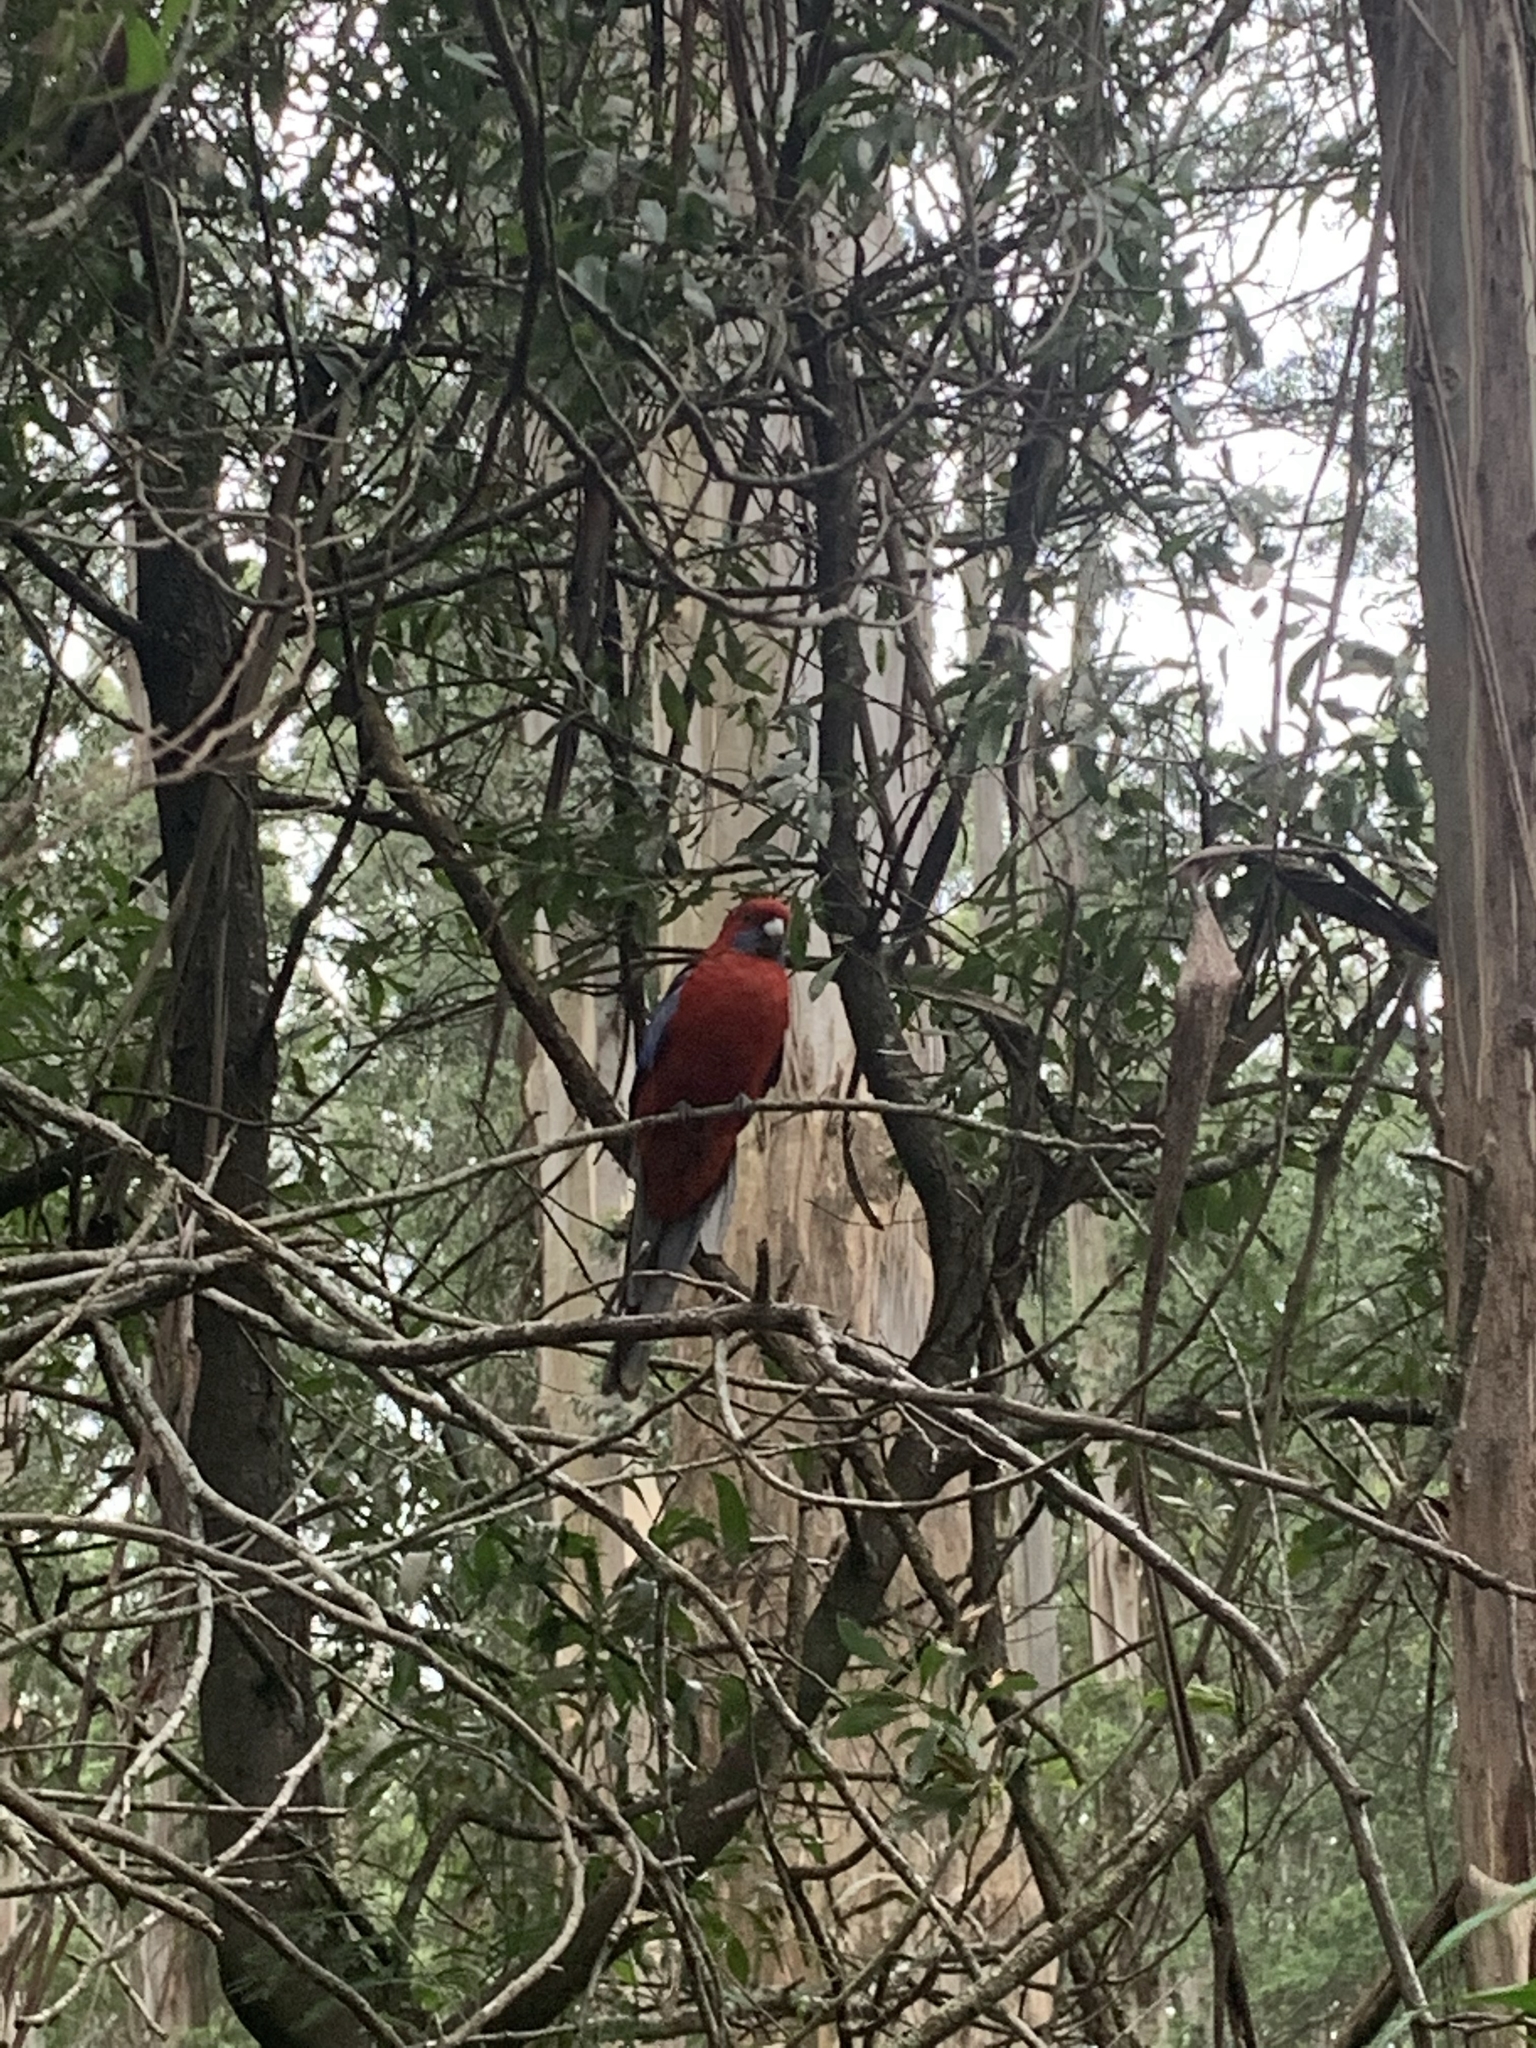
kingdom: Animalia
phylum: Chordata
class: Aves
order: Psittaciformes
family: Psittacidae
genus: Platycercus
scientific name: Platycercus elegans
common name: Crimson rosella
